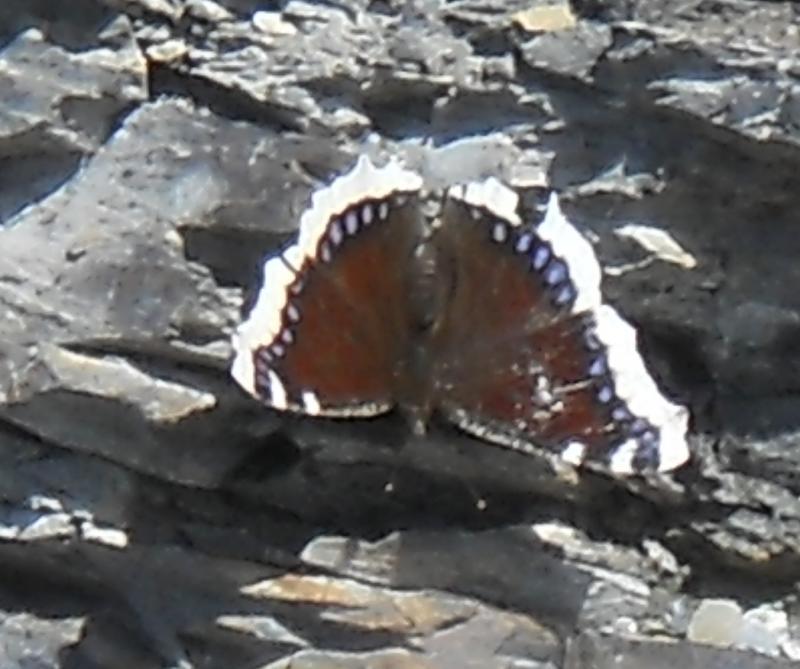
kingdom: Animalia
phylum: Arthropoda
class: Insecta
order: Lepidoptera
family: Nymphalidae
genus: Nymphalis
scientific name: Nymphalis antiopa
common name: Camberwell beauty
